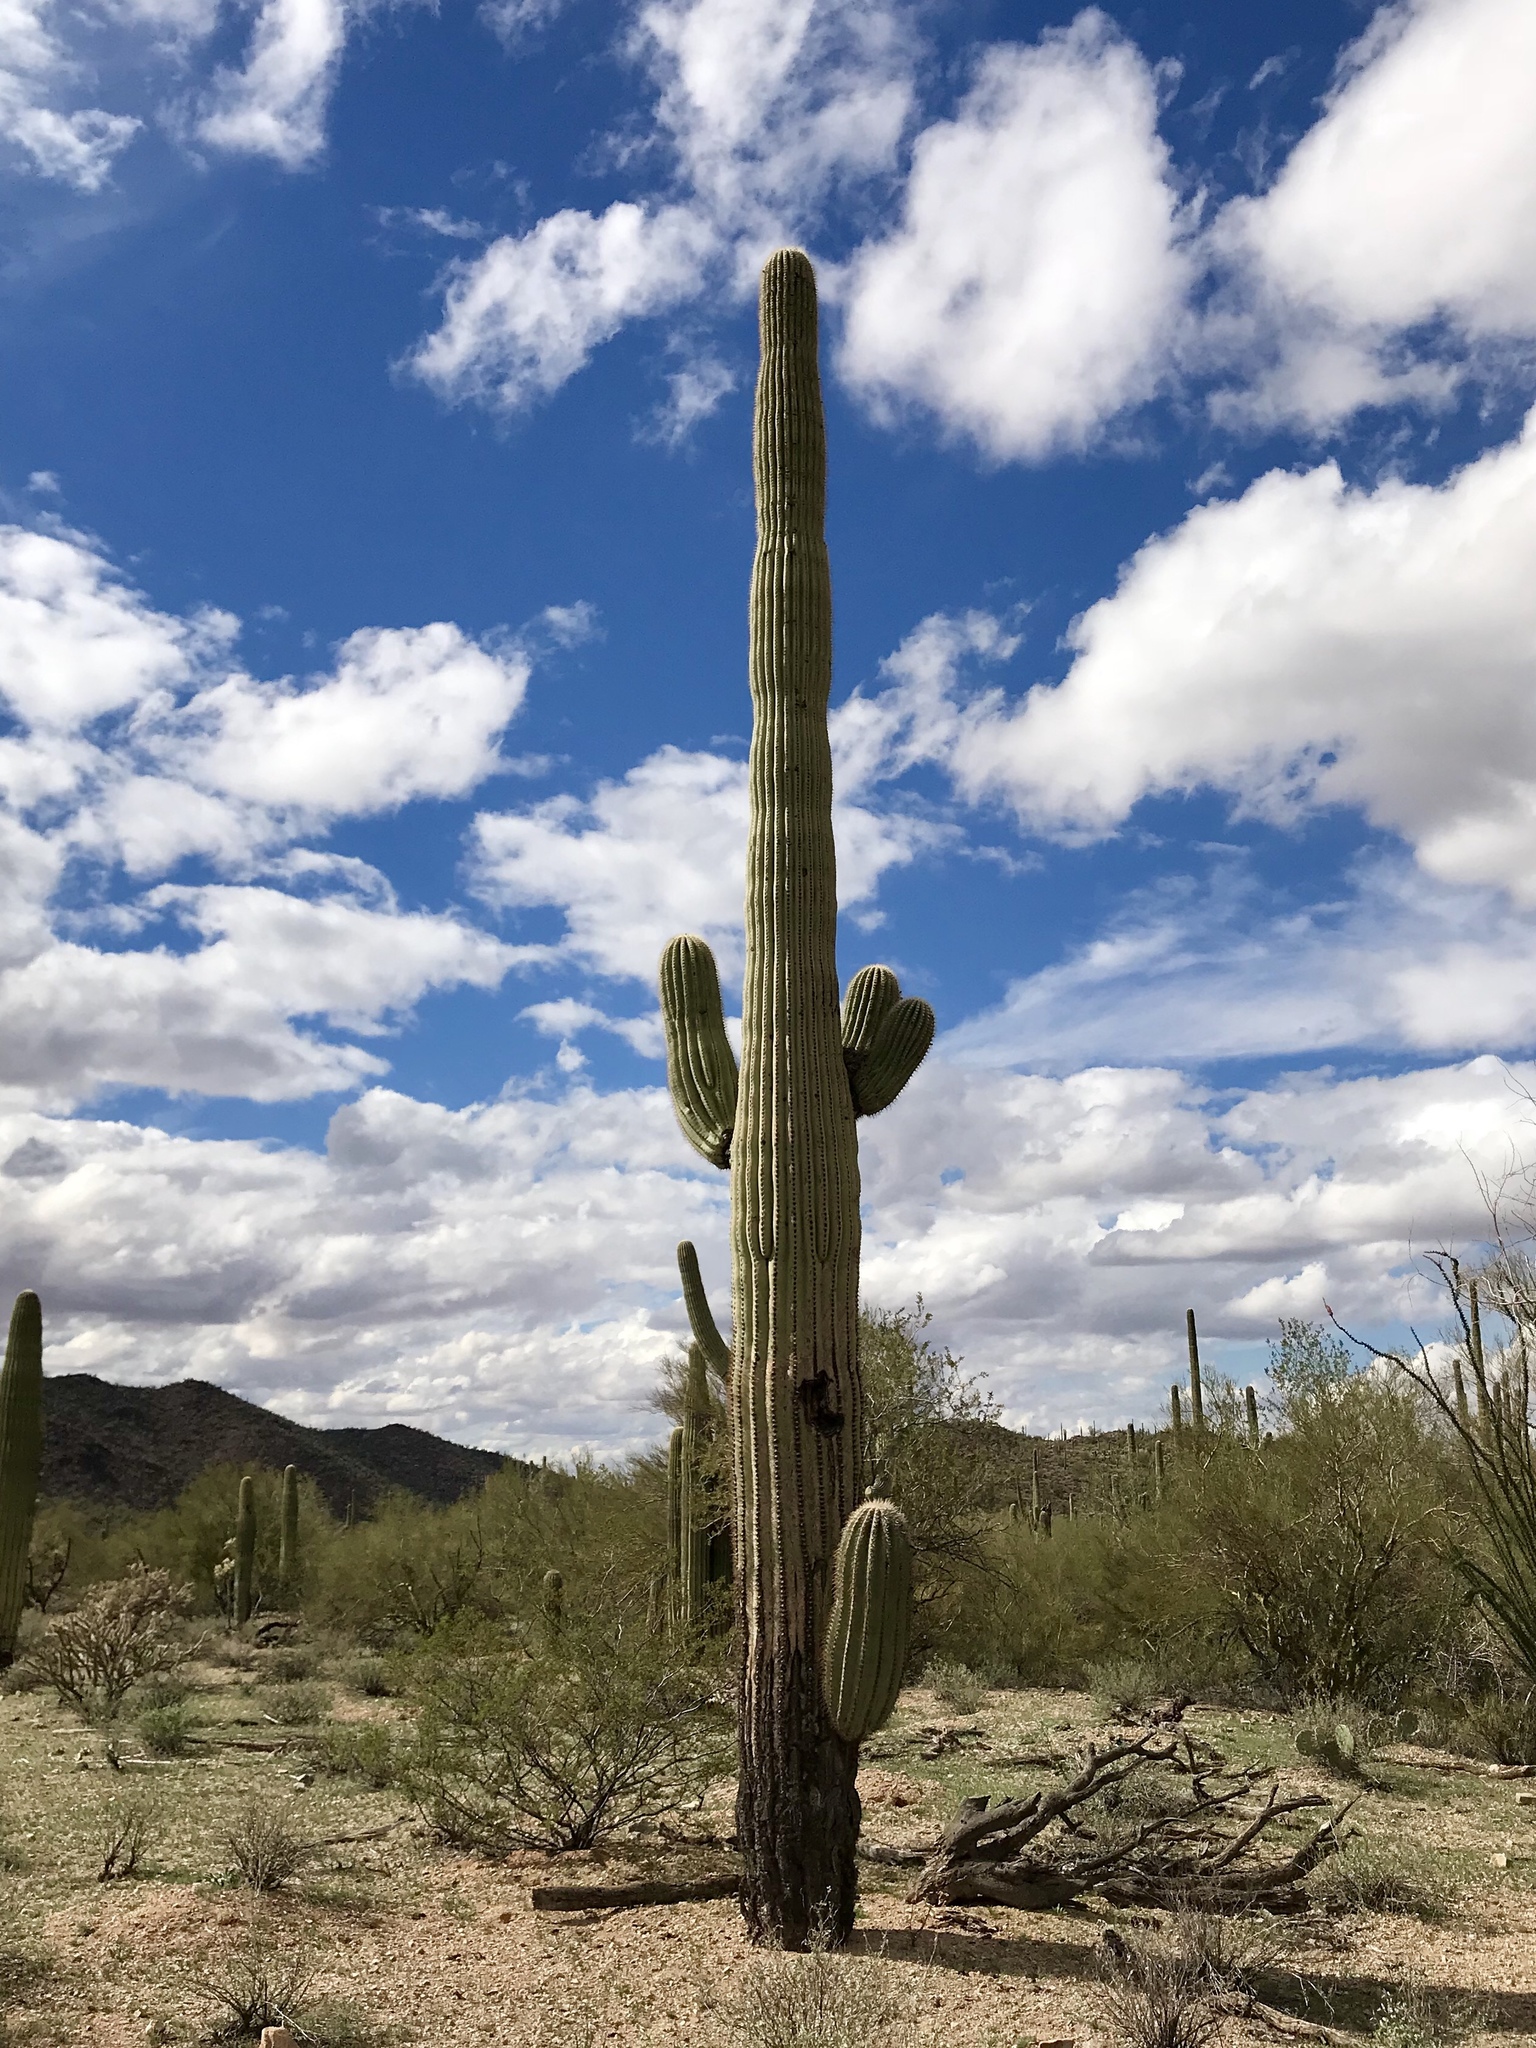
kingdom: Plantae
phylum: Tracheophyta
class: Magnoliopsida
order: Caryophyllales
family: Cactaceae
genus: Carnegiea
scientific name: Carnegiea gigantea
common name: Saguaro
